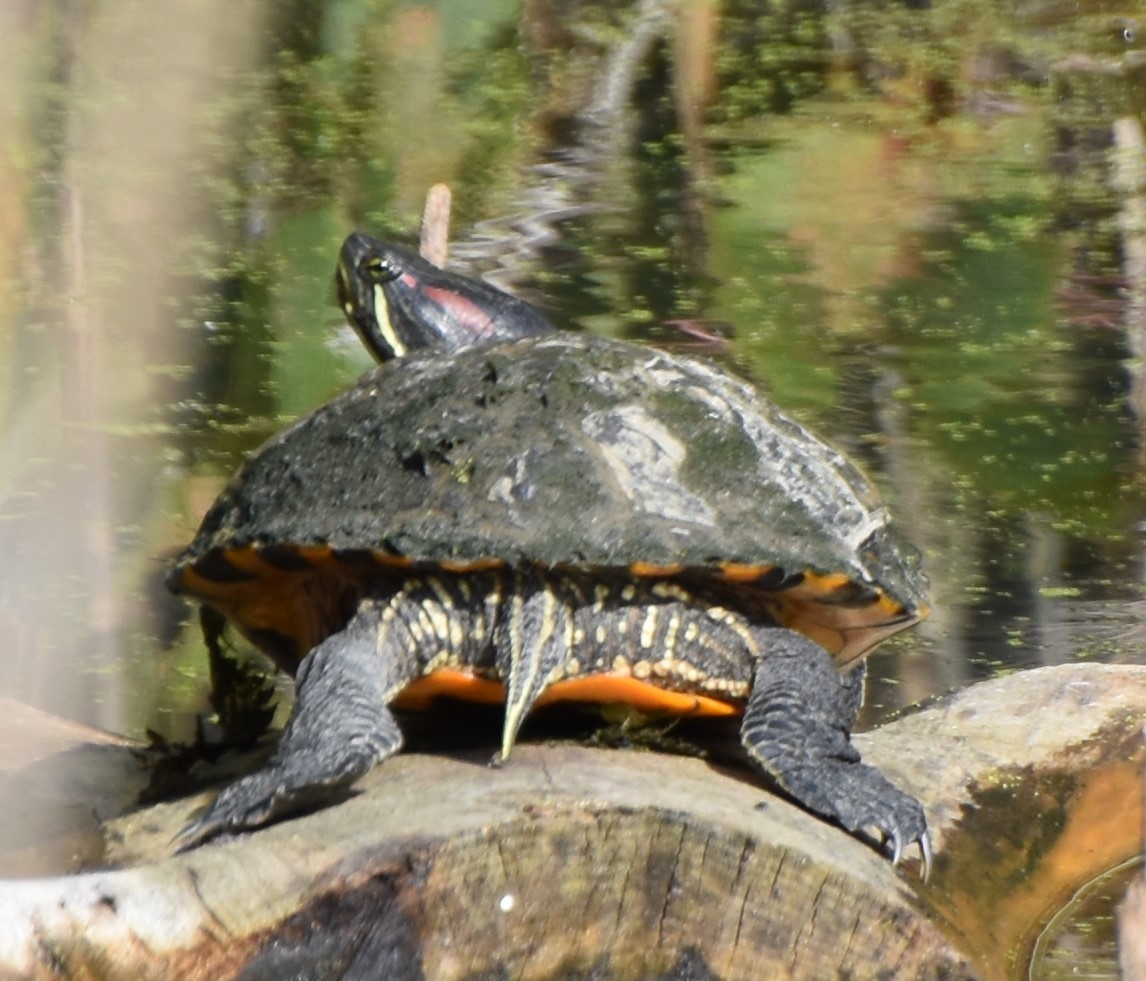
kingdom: Animalia
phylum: Chordata
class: Testudines
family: Emydidae
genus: Trachemys
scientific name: Trachemys scripta
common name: Slider
